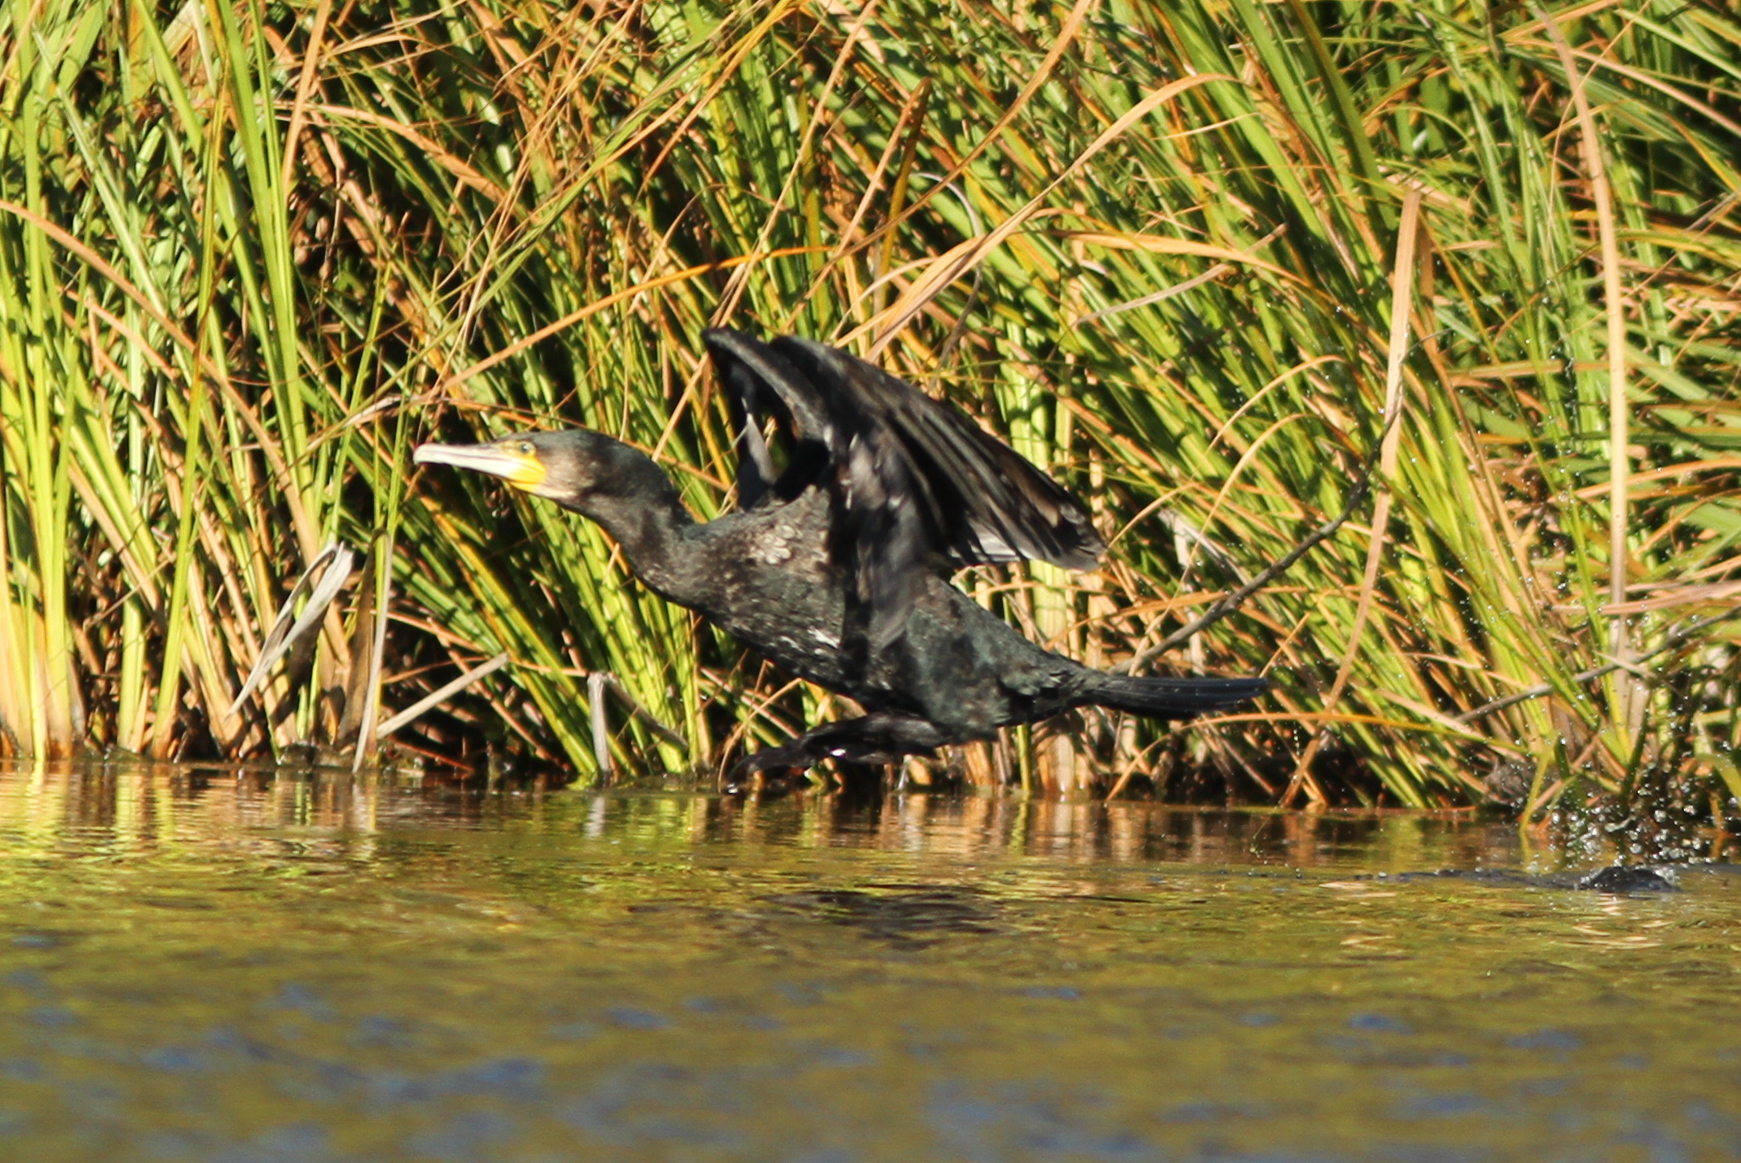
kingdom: Animalia
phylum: Chordata
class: Aves
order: Suliformes
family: Phalacrocoracidae
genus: Phalacrocorax
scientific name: Phalacrocorax carbo
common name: Great cormorant
